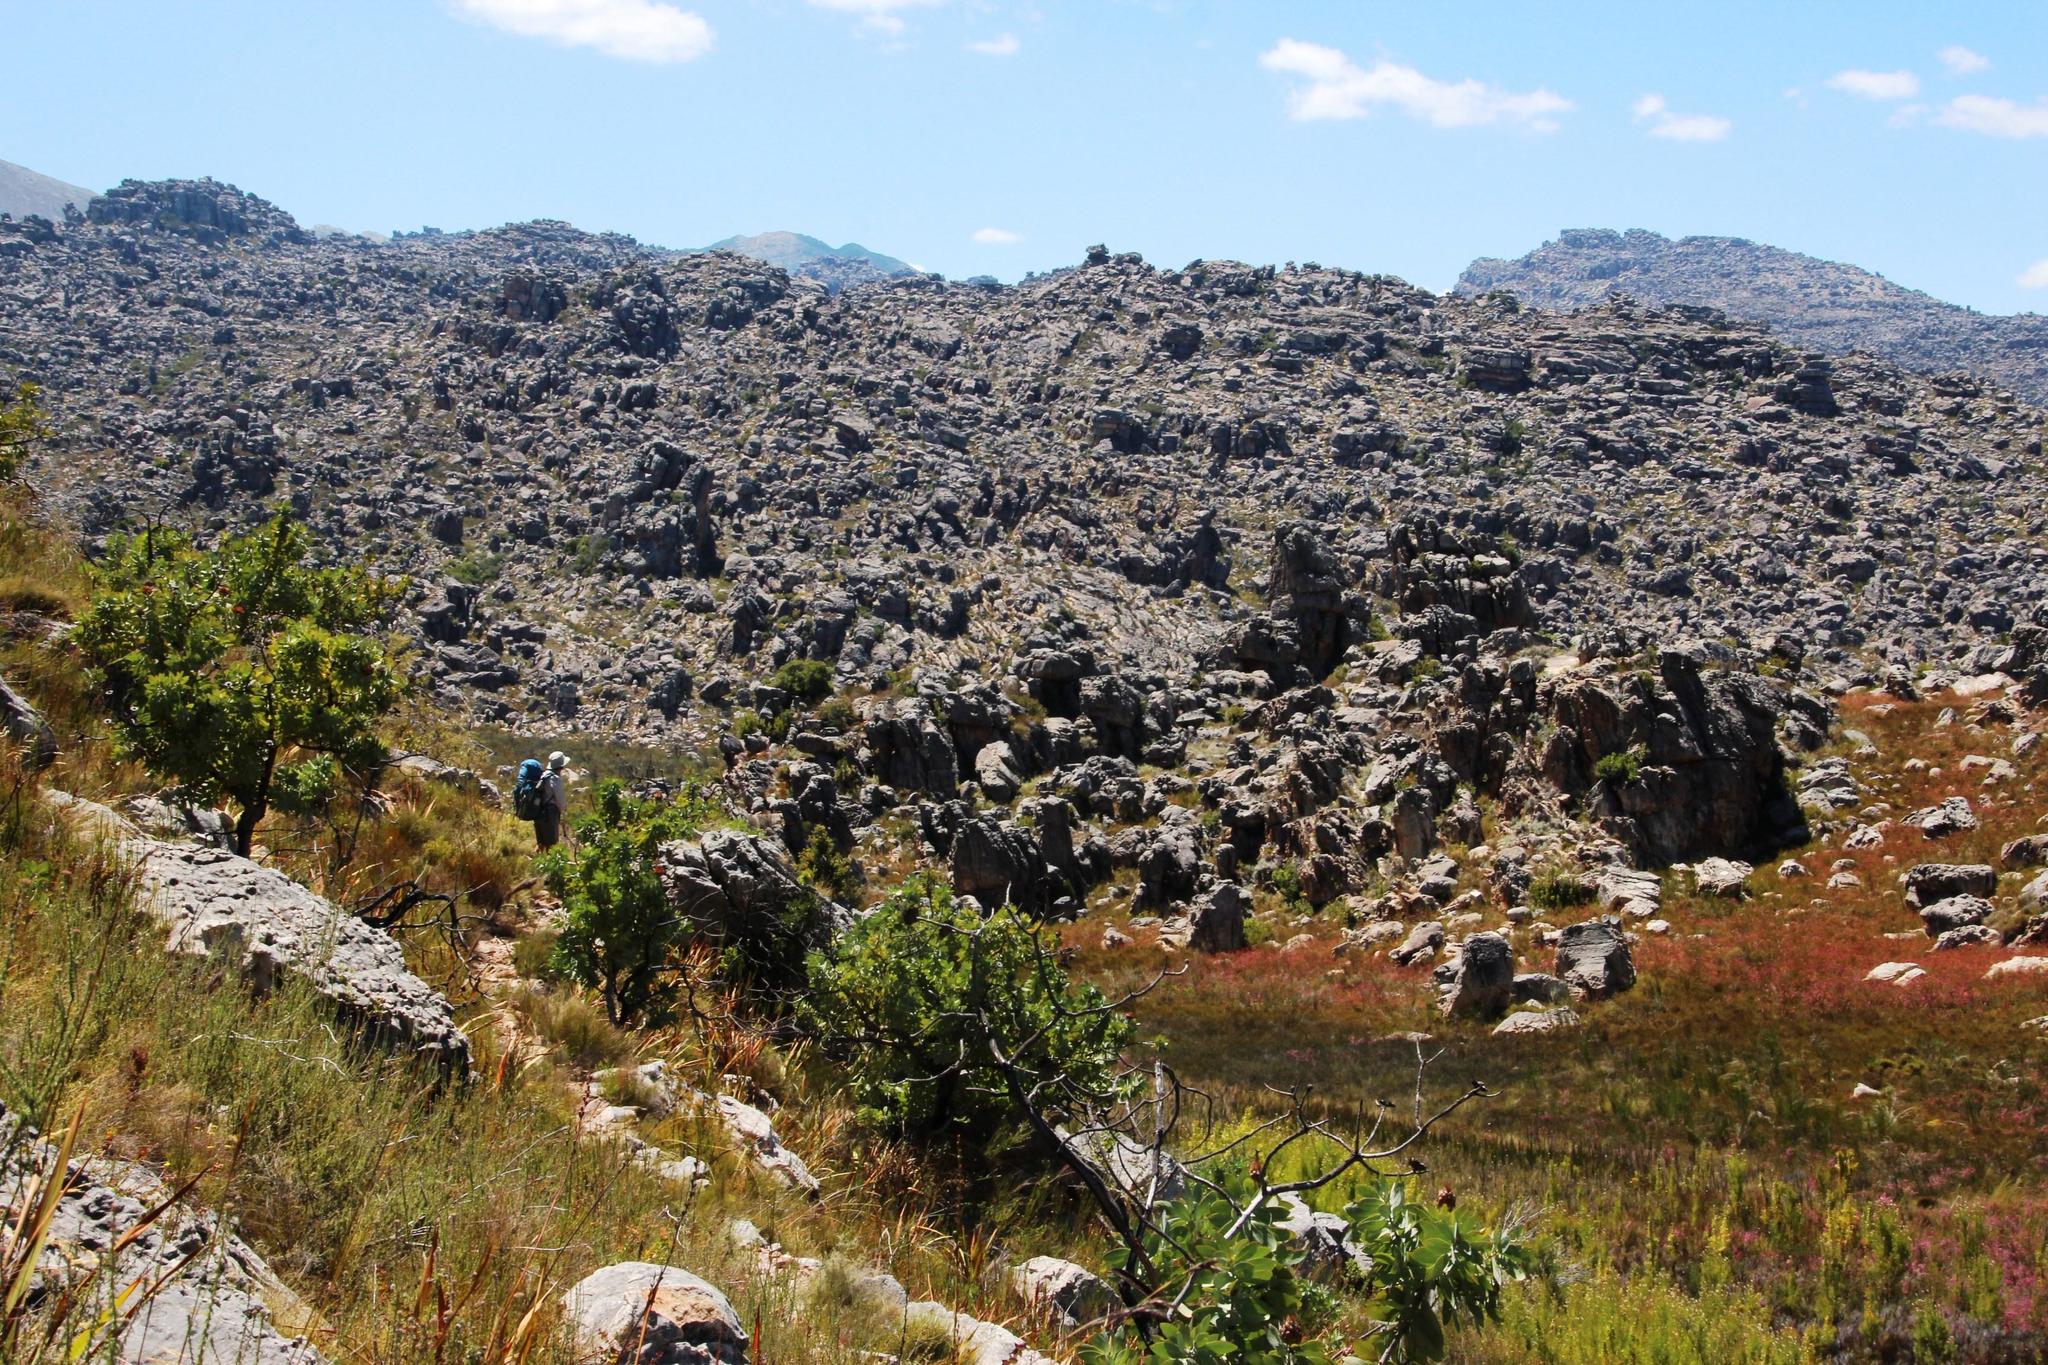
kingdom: Plantae
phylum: Tracheophyta
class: Magnoliopsida
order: Proteales
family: Proteaceae
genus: Protea
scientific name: Protea nitida
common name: Tree protea
